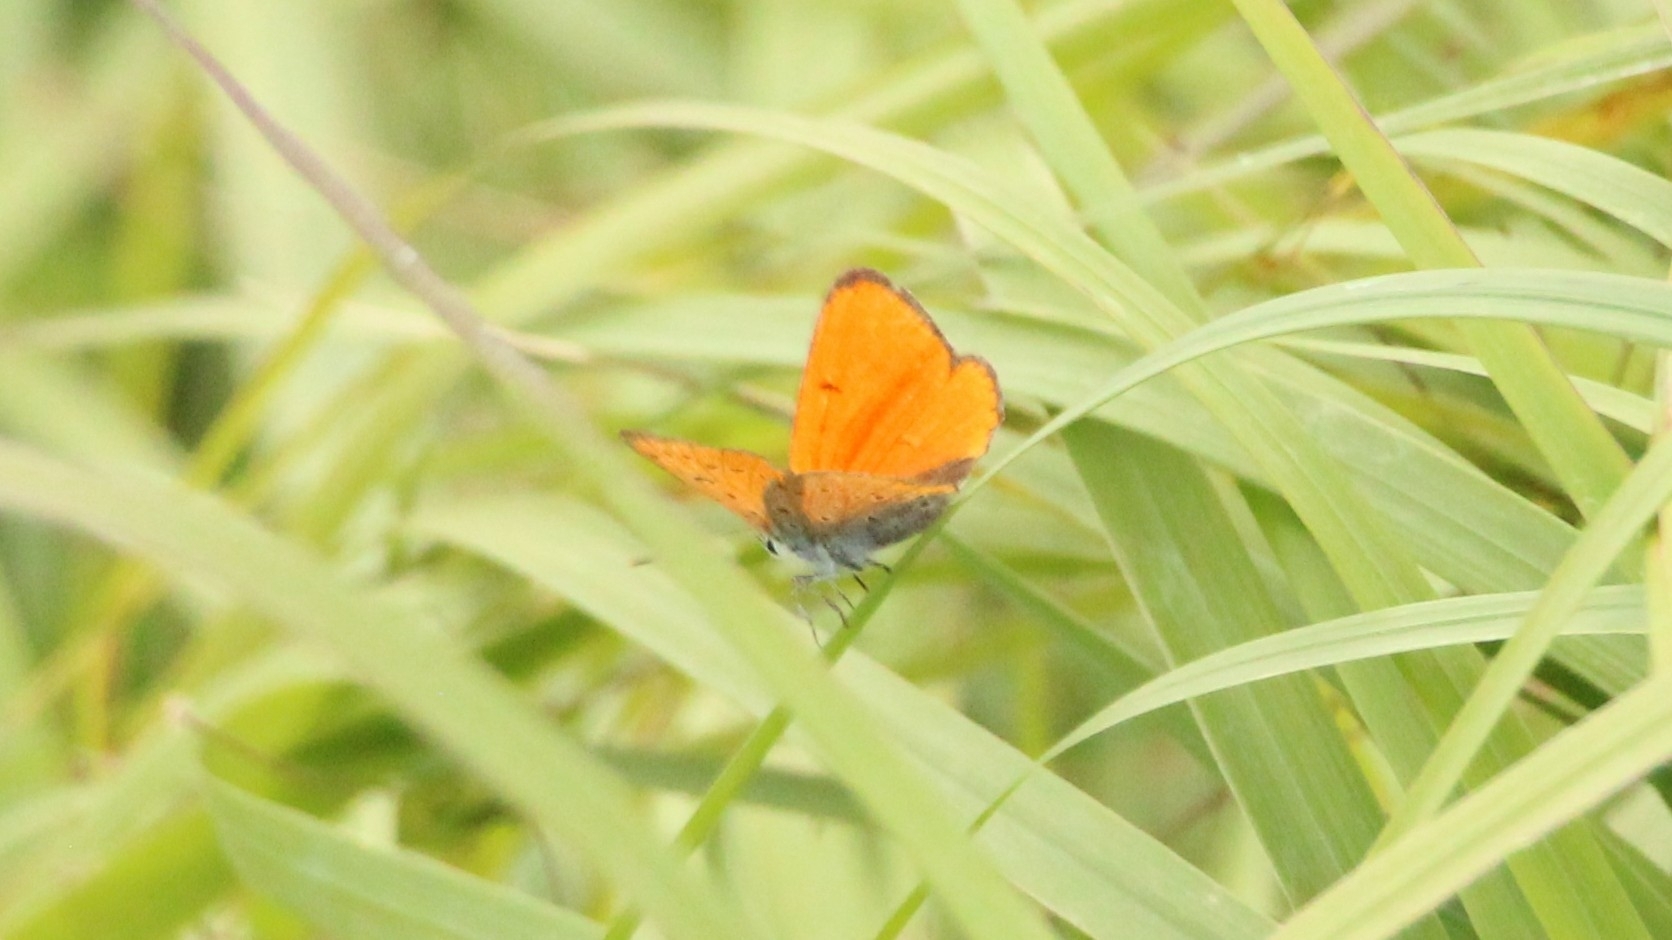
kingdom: Animalia
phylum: Arthropoda
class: Insecta
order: Lepidoptera
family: Lycaenidae
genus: Lycaena
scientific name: Lycaena dispar
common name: Large copper
